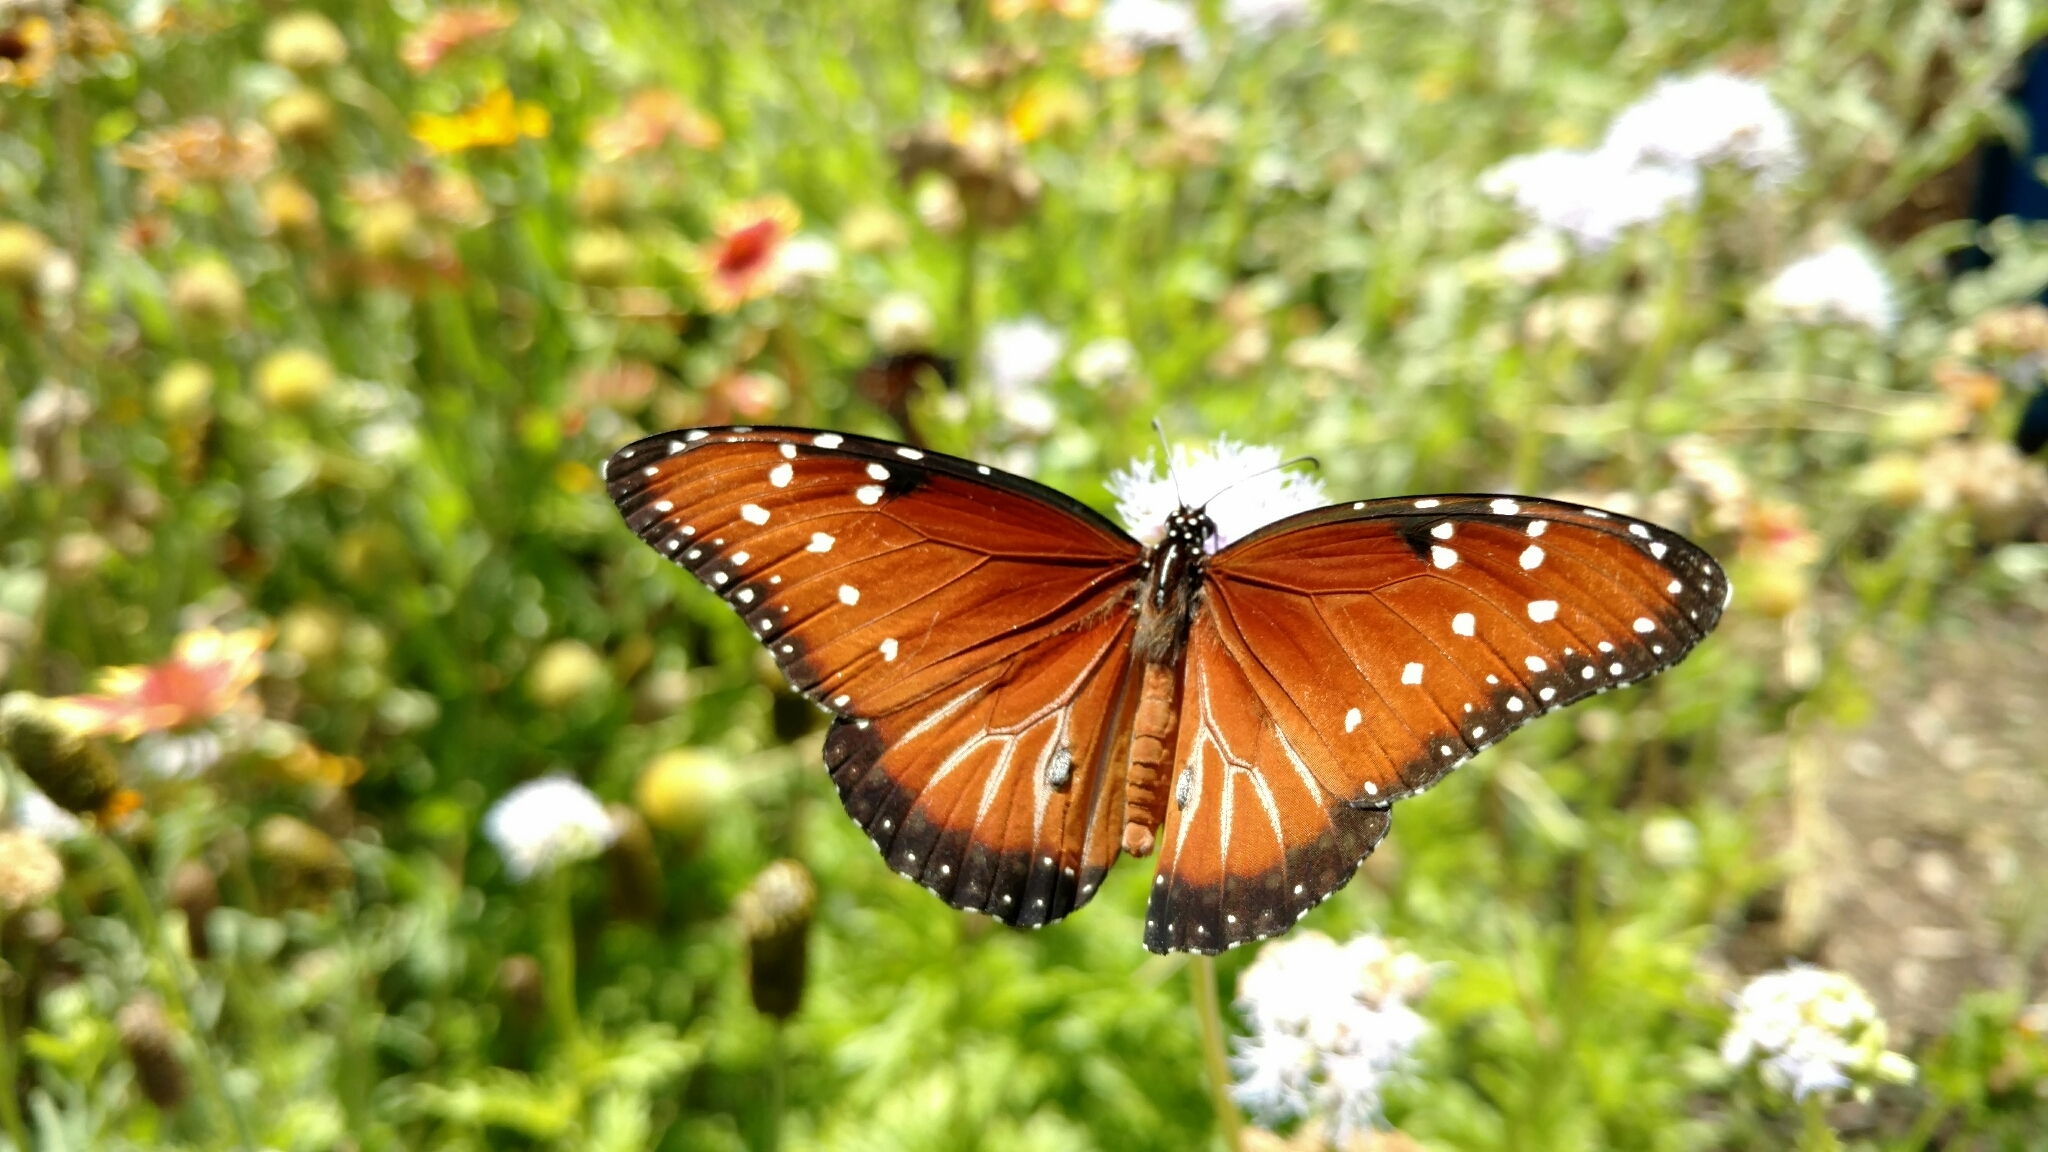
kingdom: Animalia
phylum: Arthropoda
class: Insecta
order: Lepidoptera
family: Nymphalidae
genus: Danaus
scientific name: Danaus gilippus
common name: Queen
